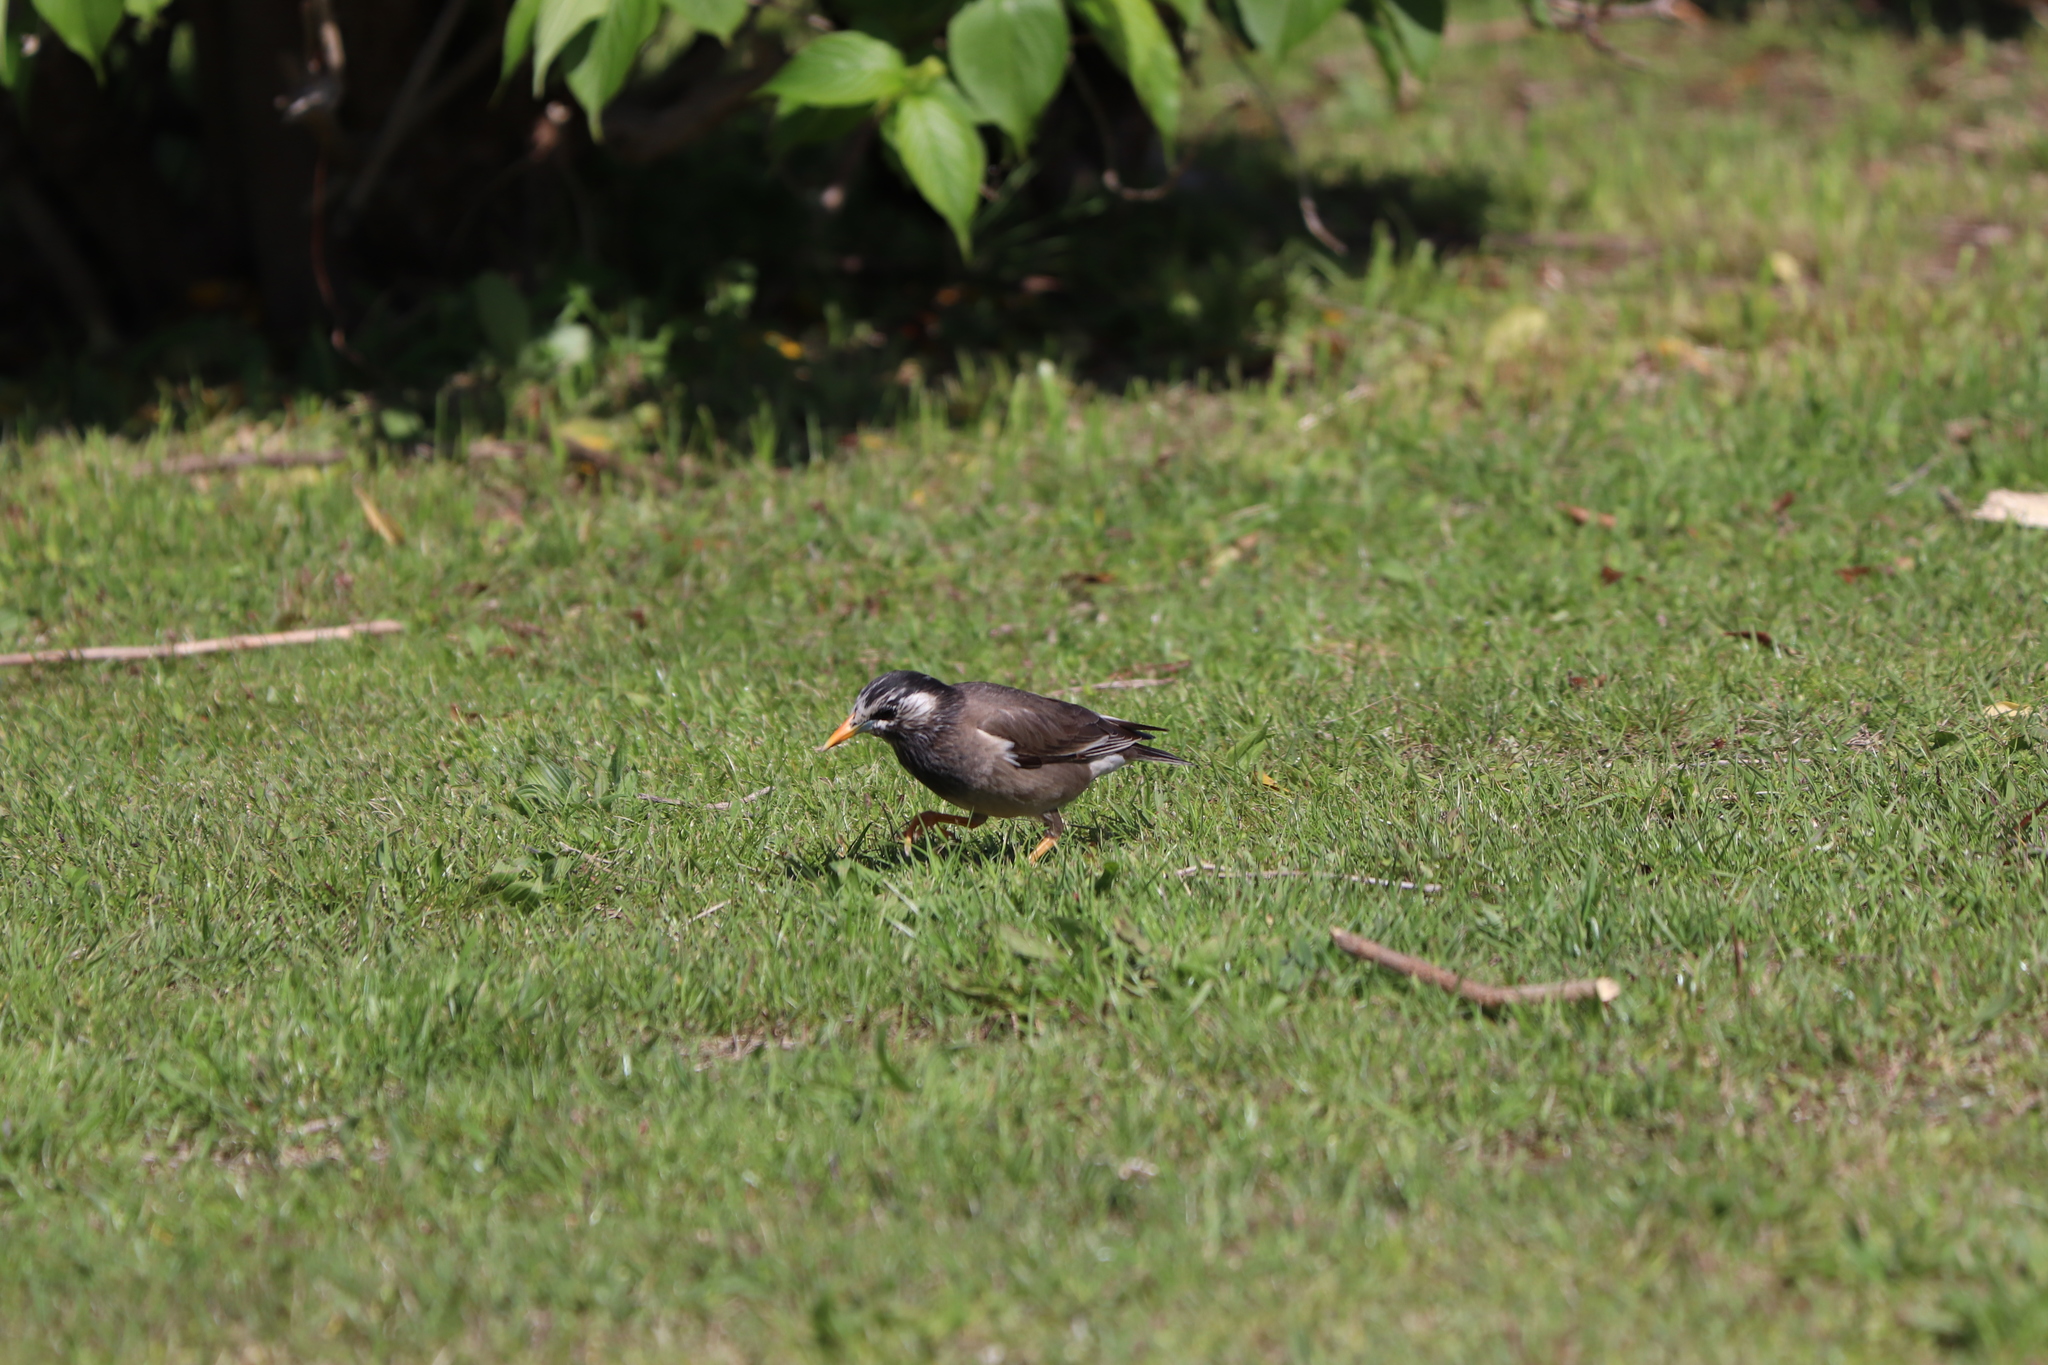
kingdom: Animalia
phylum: Chordata
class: Aves
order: Passeriformes
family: Sturnidae
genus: Spodiopsar
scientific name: Spodiopsar cineraceus
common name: White-cheeked starling
